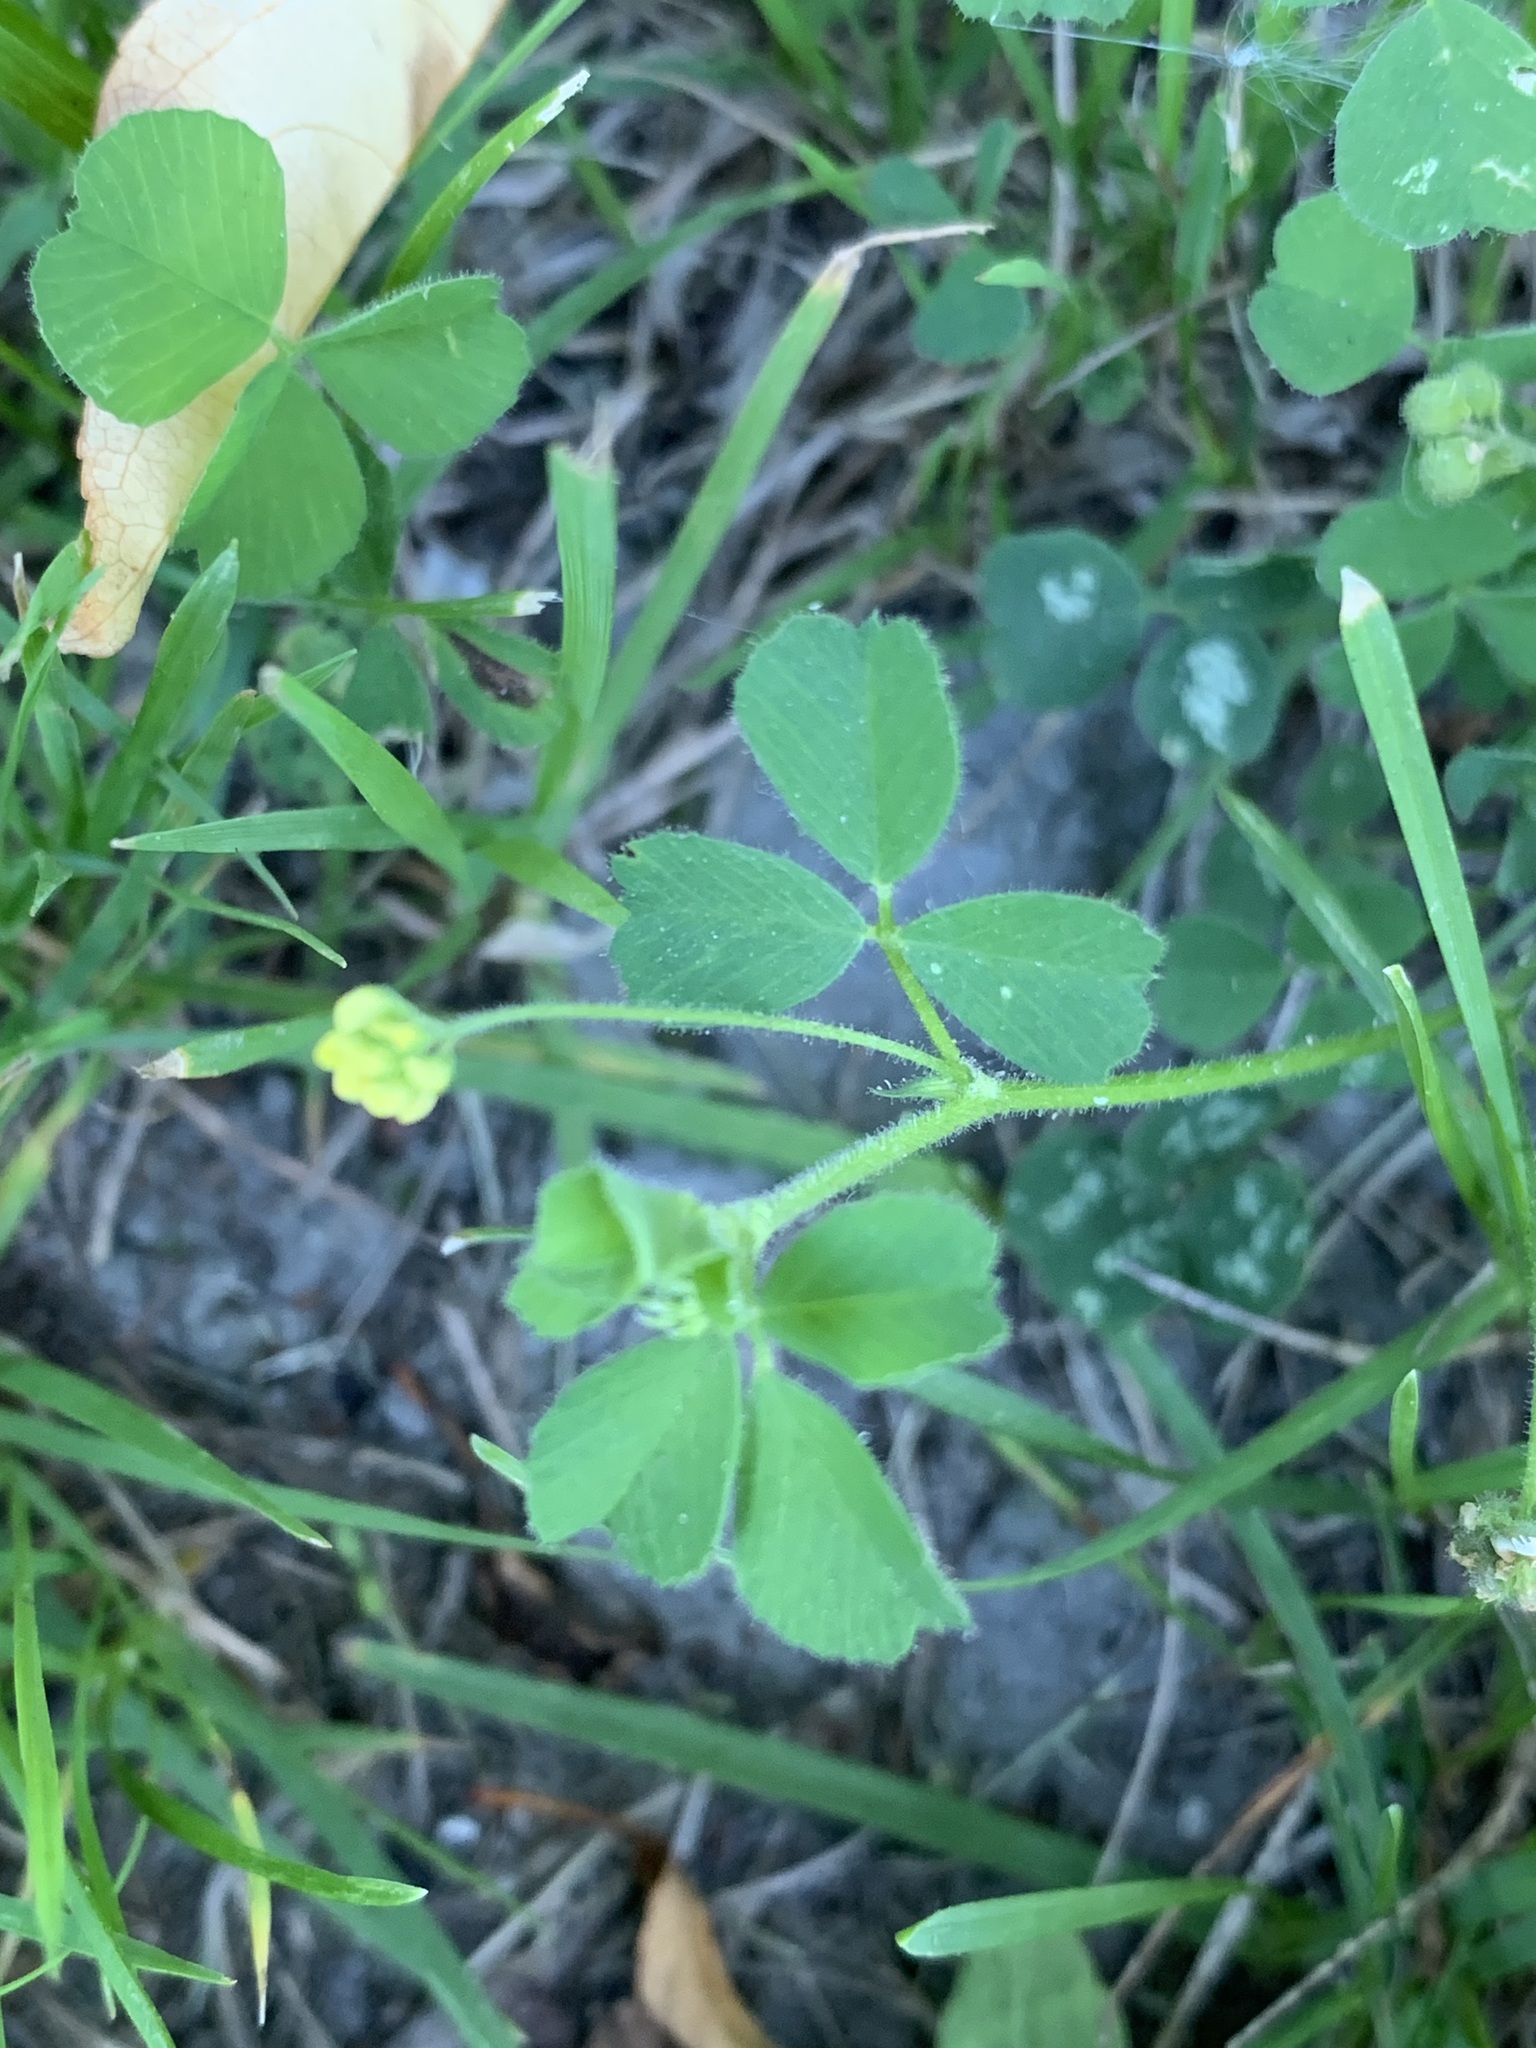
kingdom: Plantae
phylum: Tracheophyta
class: Magnoliopsida
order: Fabales
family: Fabaceae
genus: Medicago
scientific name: Medicago lupulina
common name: Black medick
